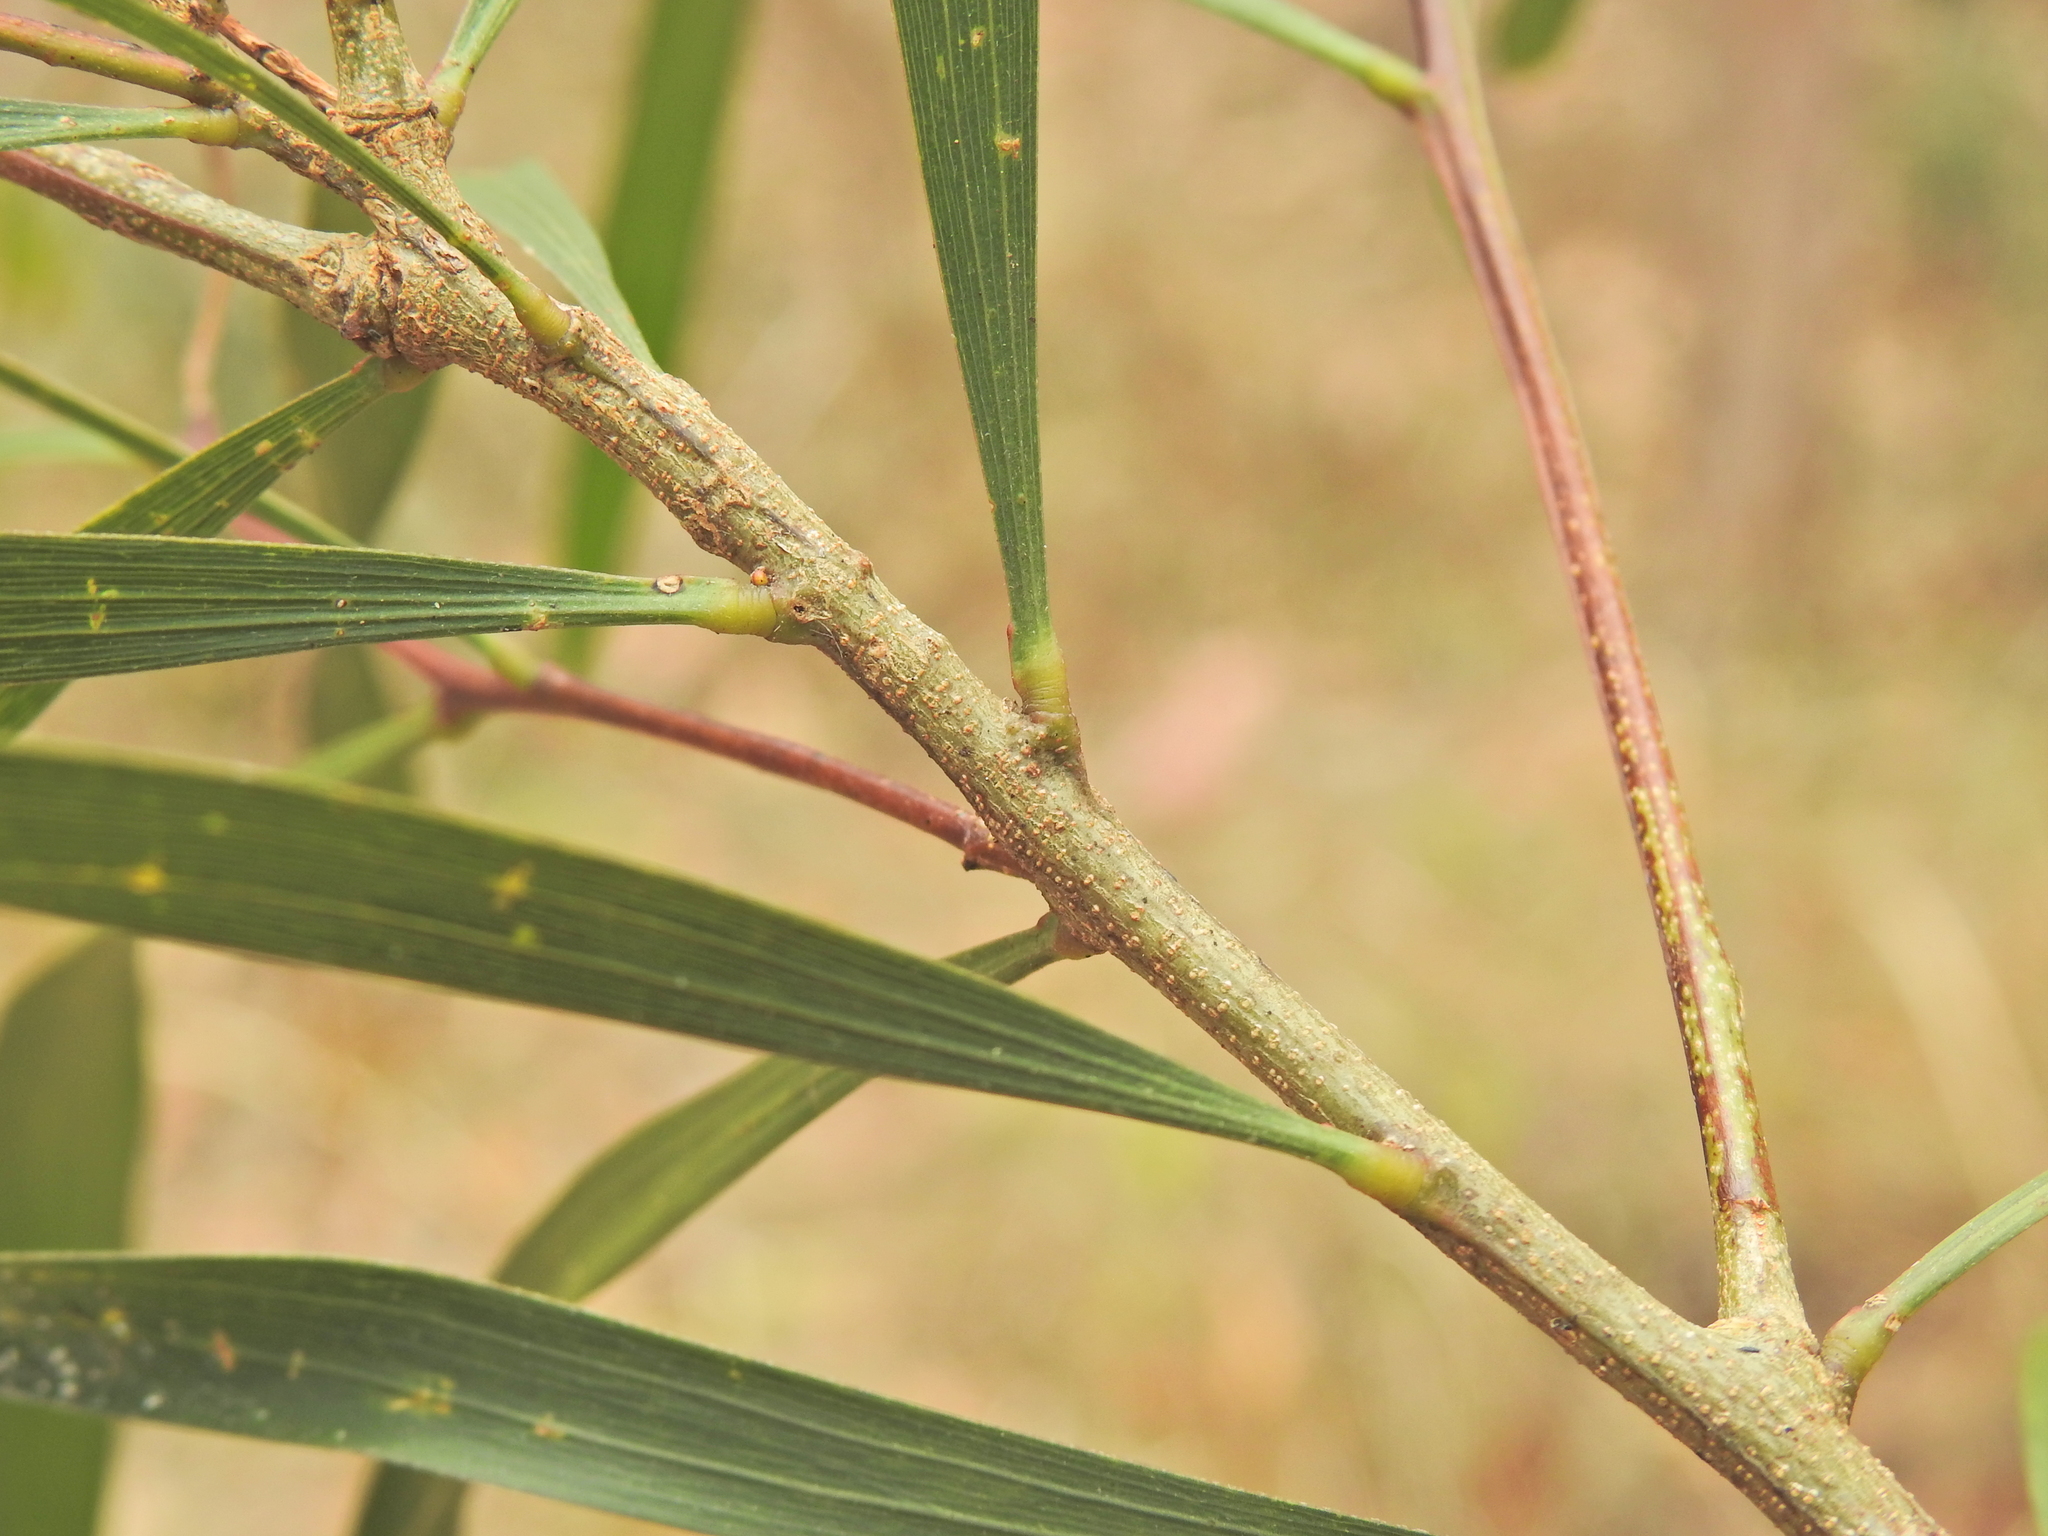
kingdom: Plantae
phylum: Tracheophyta
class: Magnoliopsida
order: Fabales
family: Fabaceae
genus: Acacia
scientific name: Acacia maidenii
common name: Maiden's wattle
